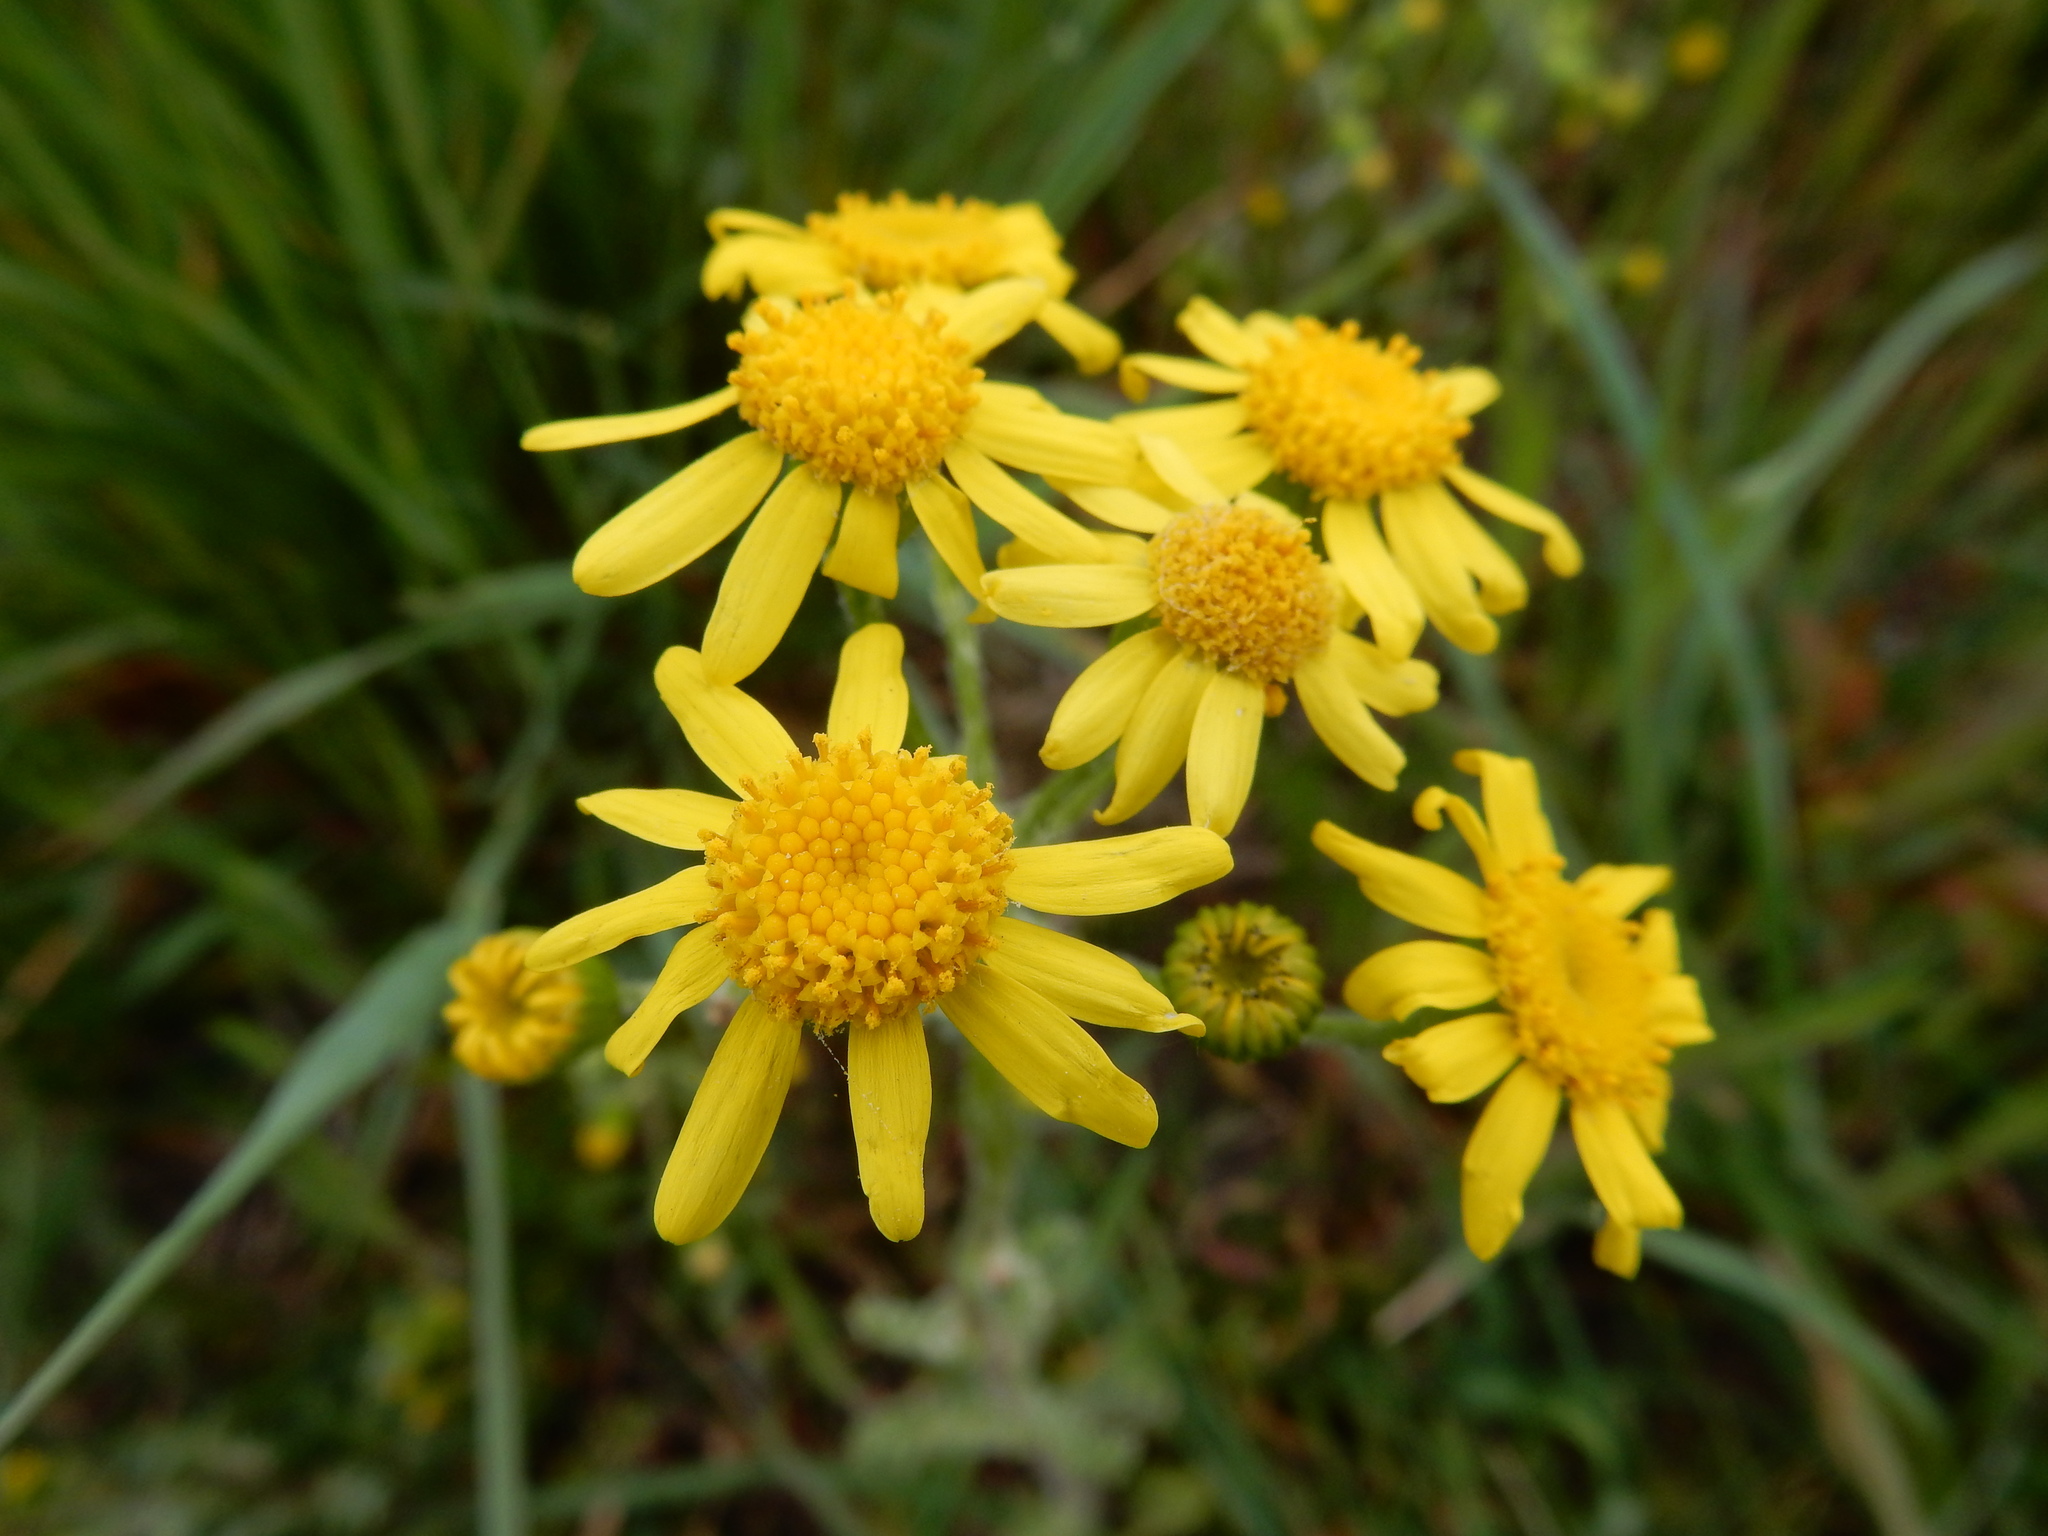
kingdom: Plantae
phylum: Tracheophyta
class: Magnoliopsida
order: Asterales
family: Asteraceae
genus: Senecio
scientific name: Senecio vernalis
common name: Eastern groundsel
